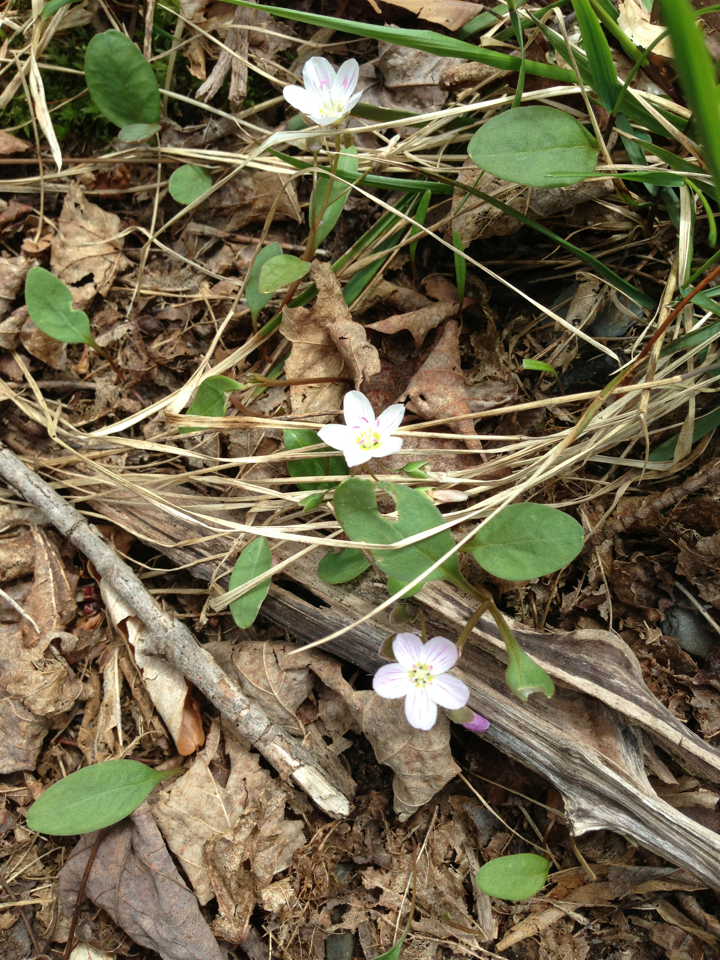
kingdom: Plantae
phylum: Tracheophyta
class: Magnoliopsida
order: Caryophyllales
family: Montiaceae
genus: Claytonia
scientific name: Claytonia caroliniana
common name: Carolina spring beauty
